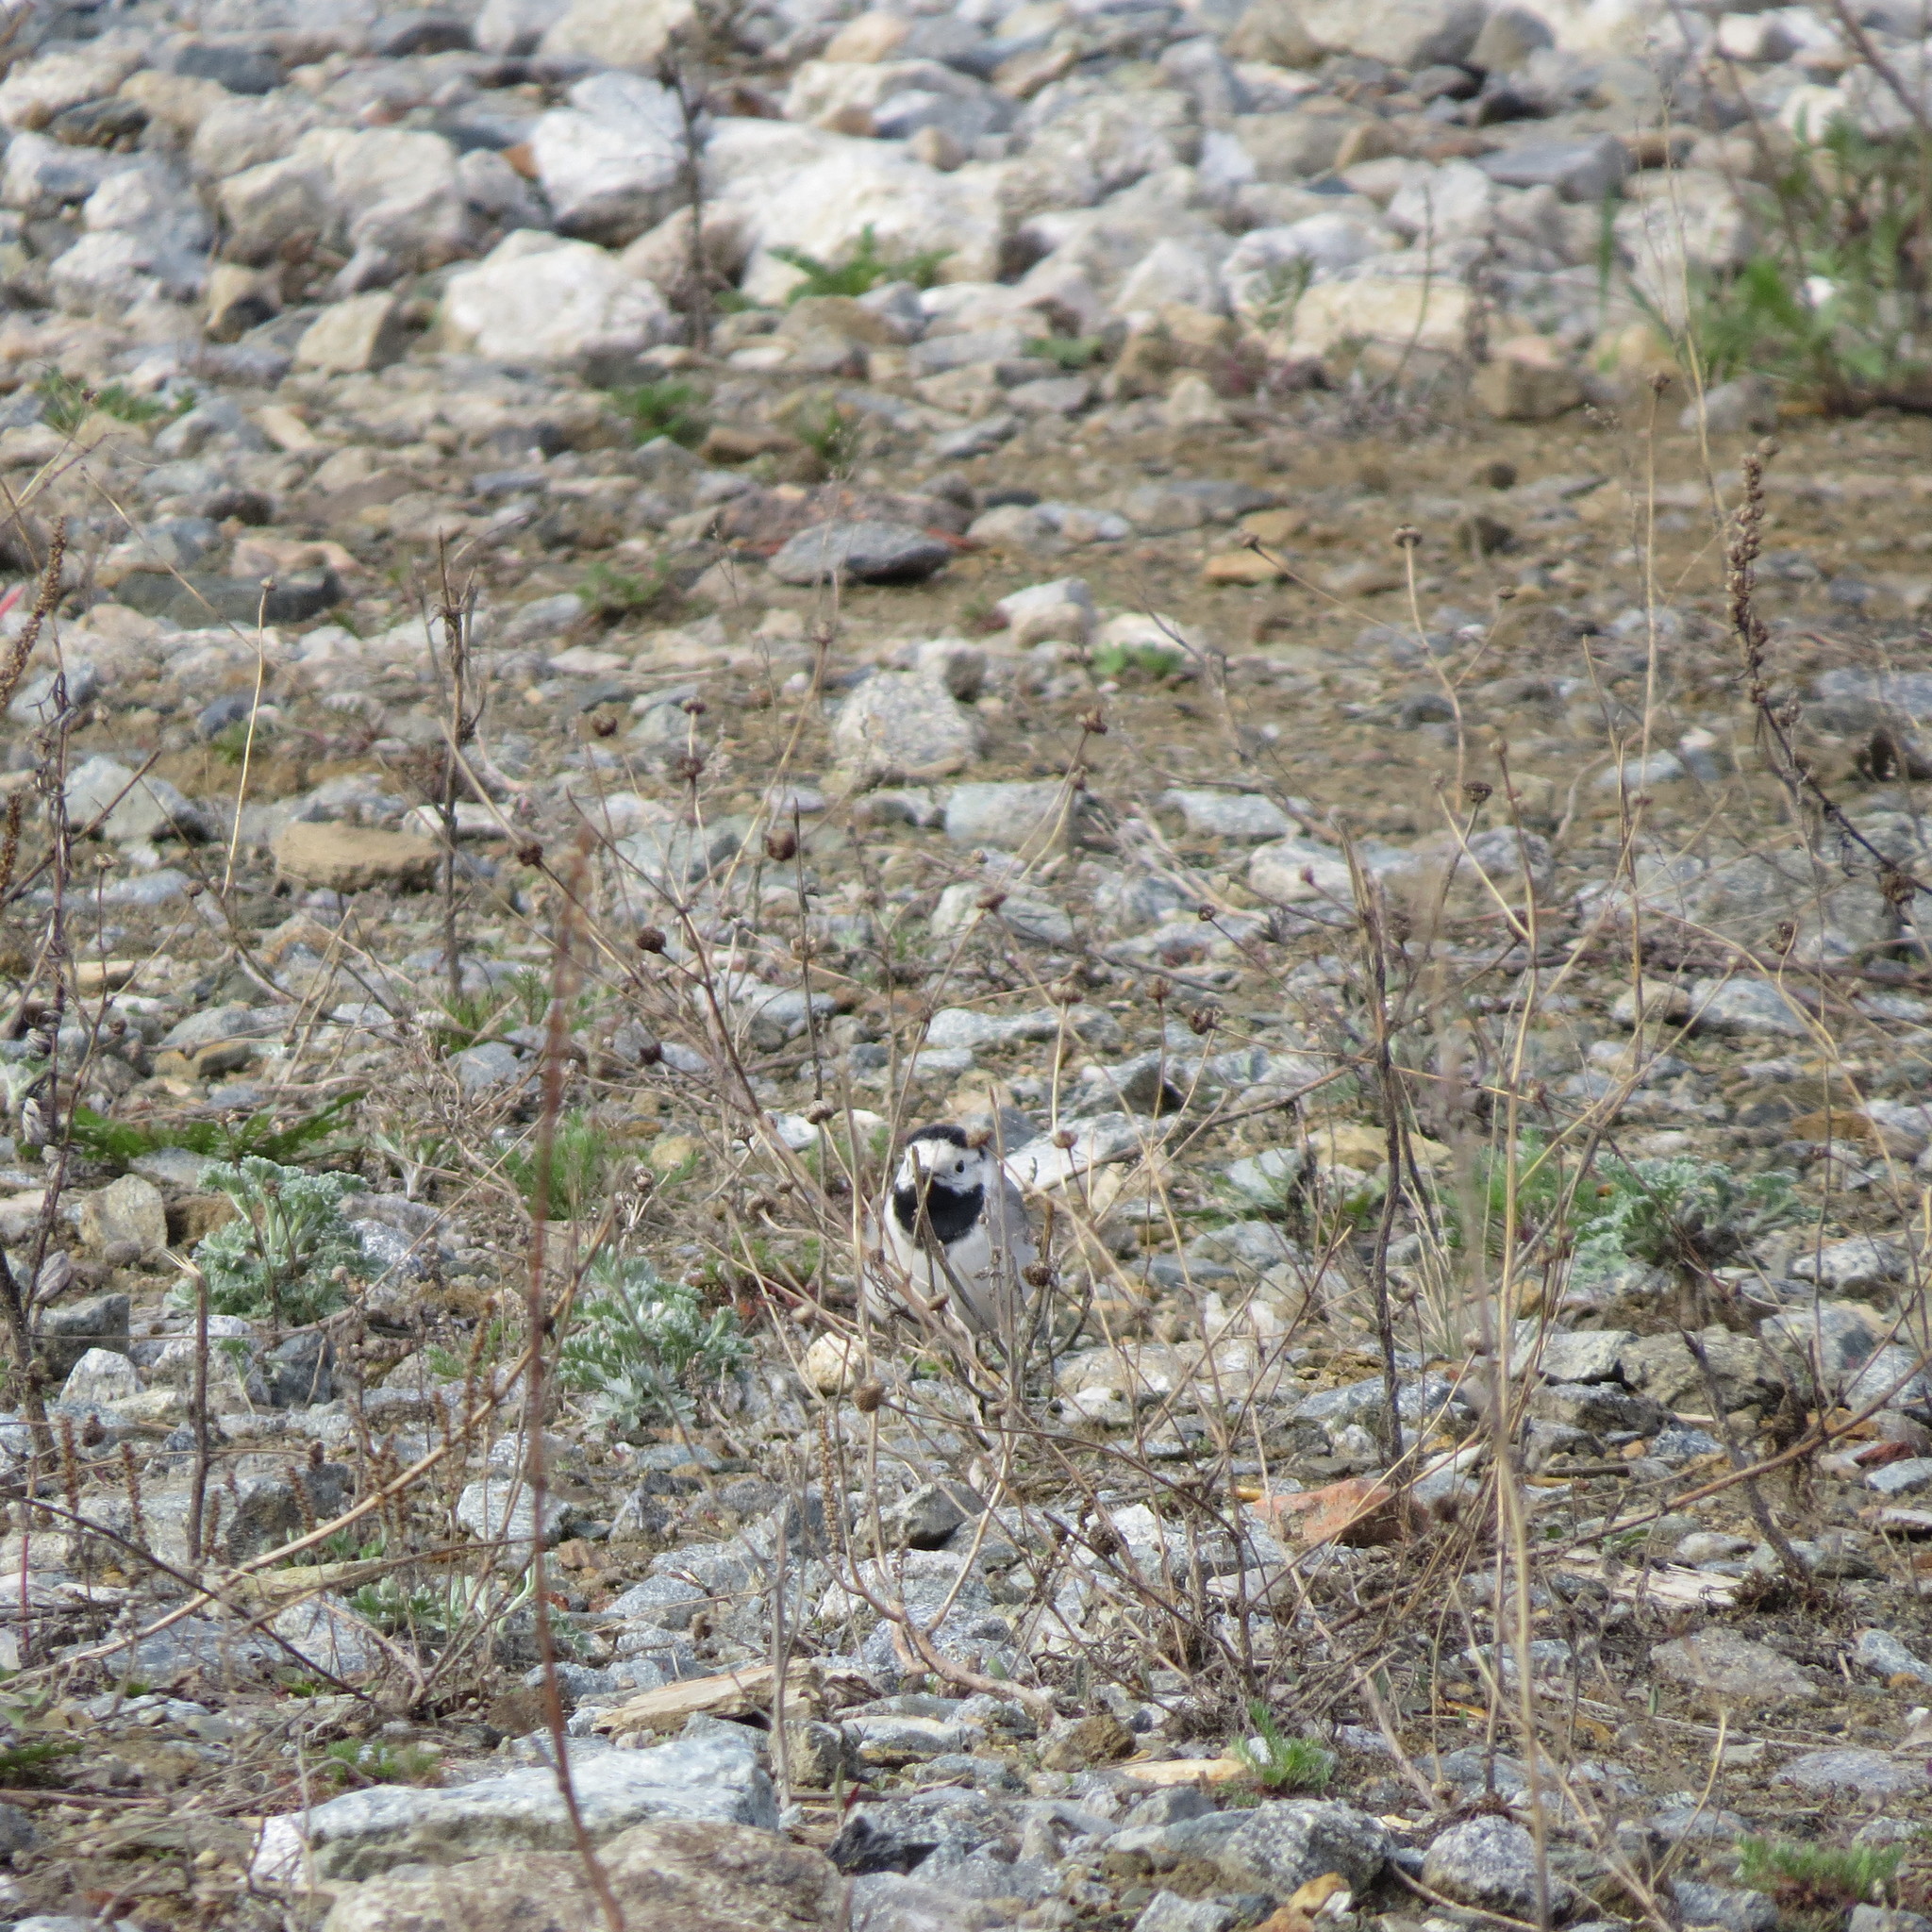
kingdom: Animalia
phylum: Chordata
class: Aves
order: Passeriformes
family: Motacillidae
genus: Motacilla
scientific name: Motacilla alba
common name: White wagtail
